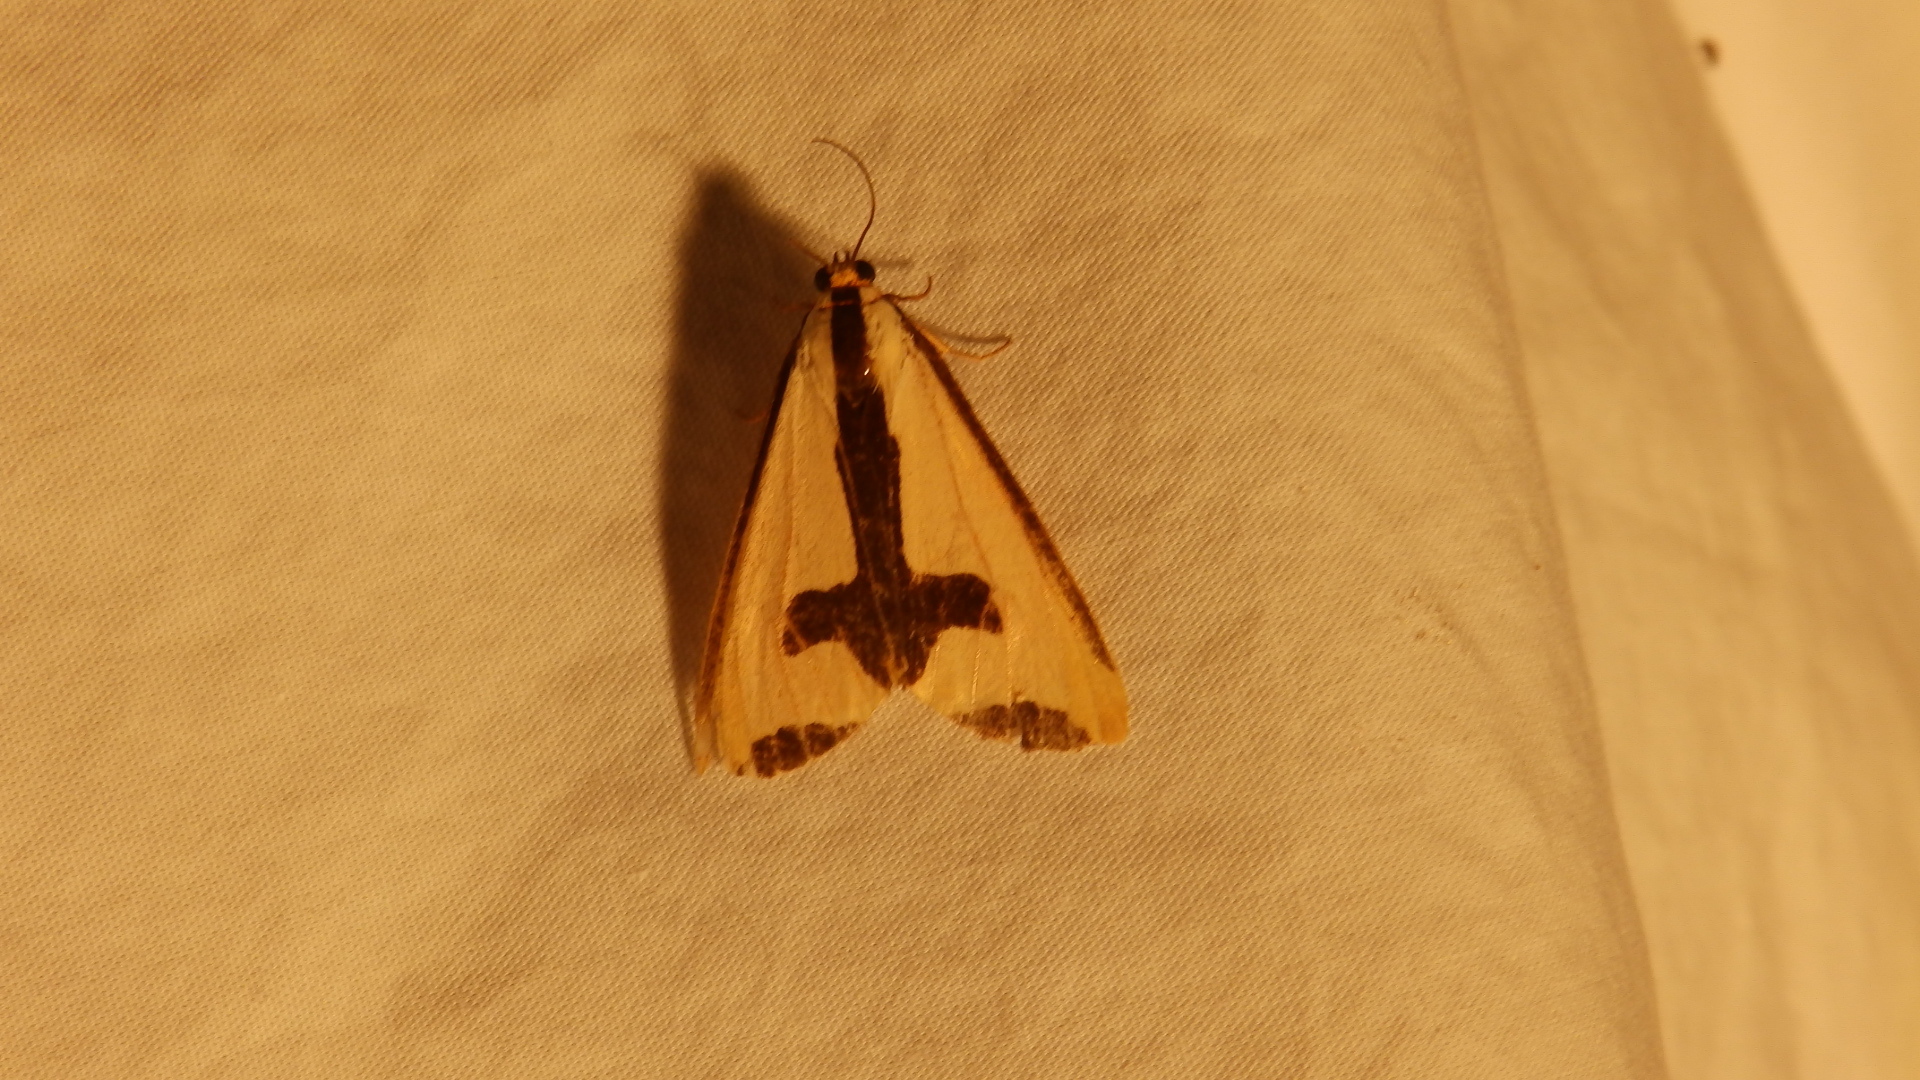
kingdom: Animalia
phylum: Arthropoda
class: Insecta
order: Lepidoptera
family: Erebidae
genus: Haploa
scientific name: Haploa clymene
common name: Clymene moth
